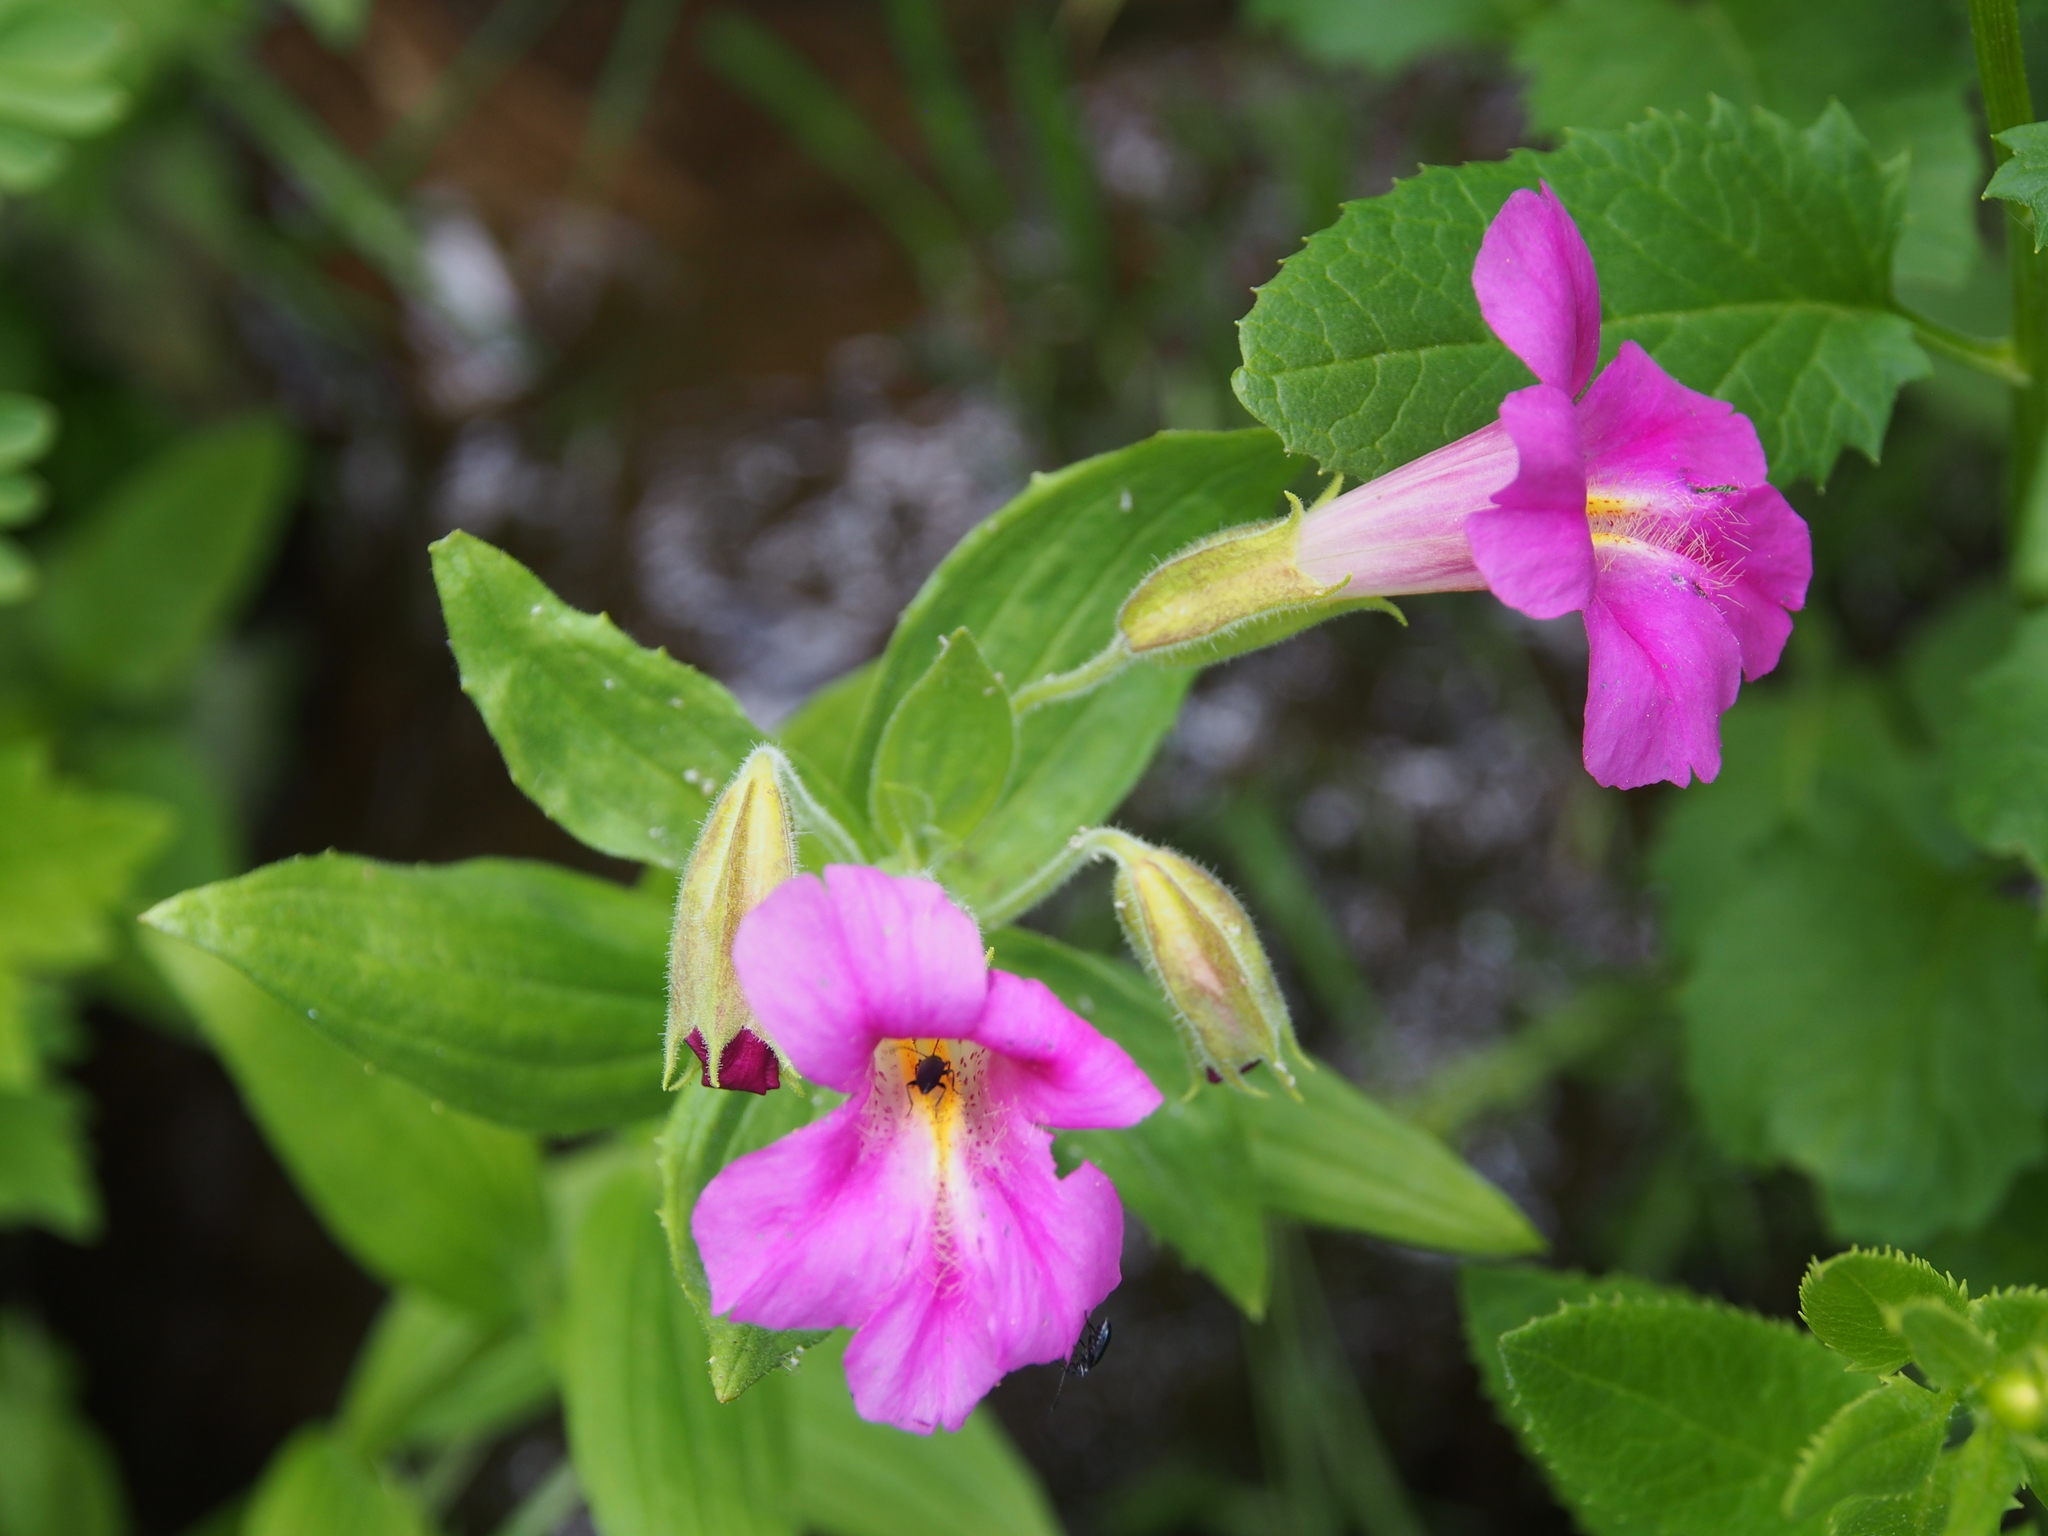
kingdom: Plantae
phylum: Tracheophyta
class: Magnoliopsida
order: Lamiales
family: Phrymaceae
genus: Erythranthe
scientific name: Erythranthe lewisii
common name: Lewis's monkey-flower
